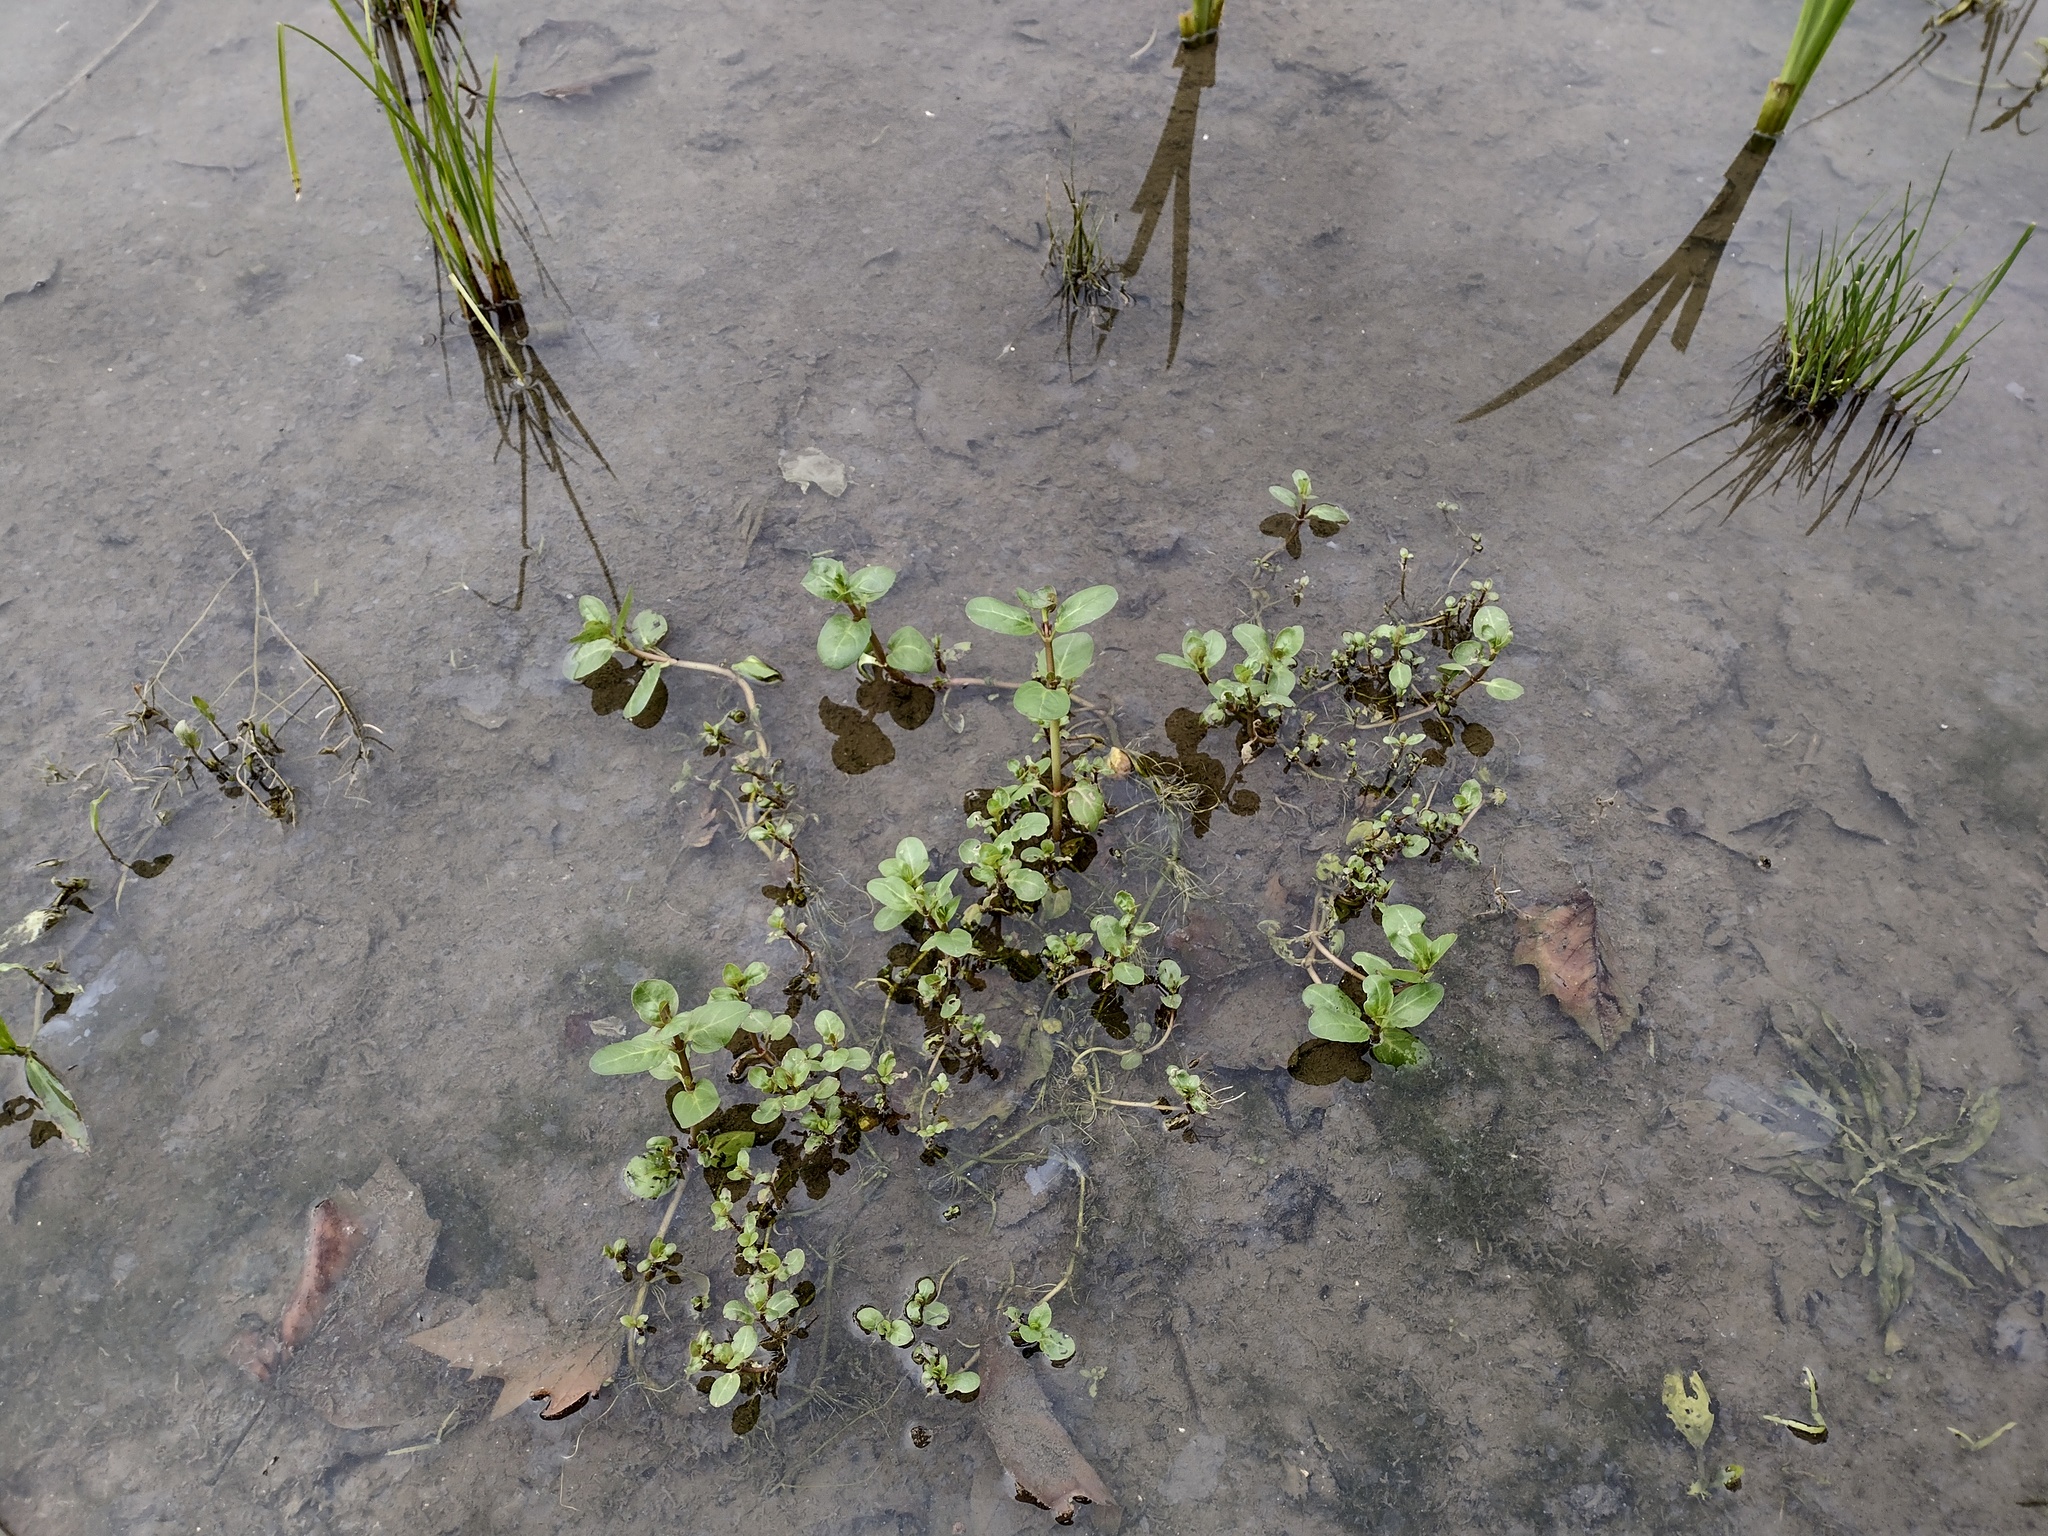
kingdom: Plantae
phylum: Tracheophyta
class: Magnoliopsida
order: Lamiales
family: Plantaginaceae
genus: Veronica
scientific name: Veronica beccabunga
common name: Brooklime
